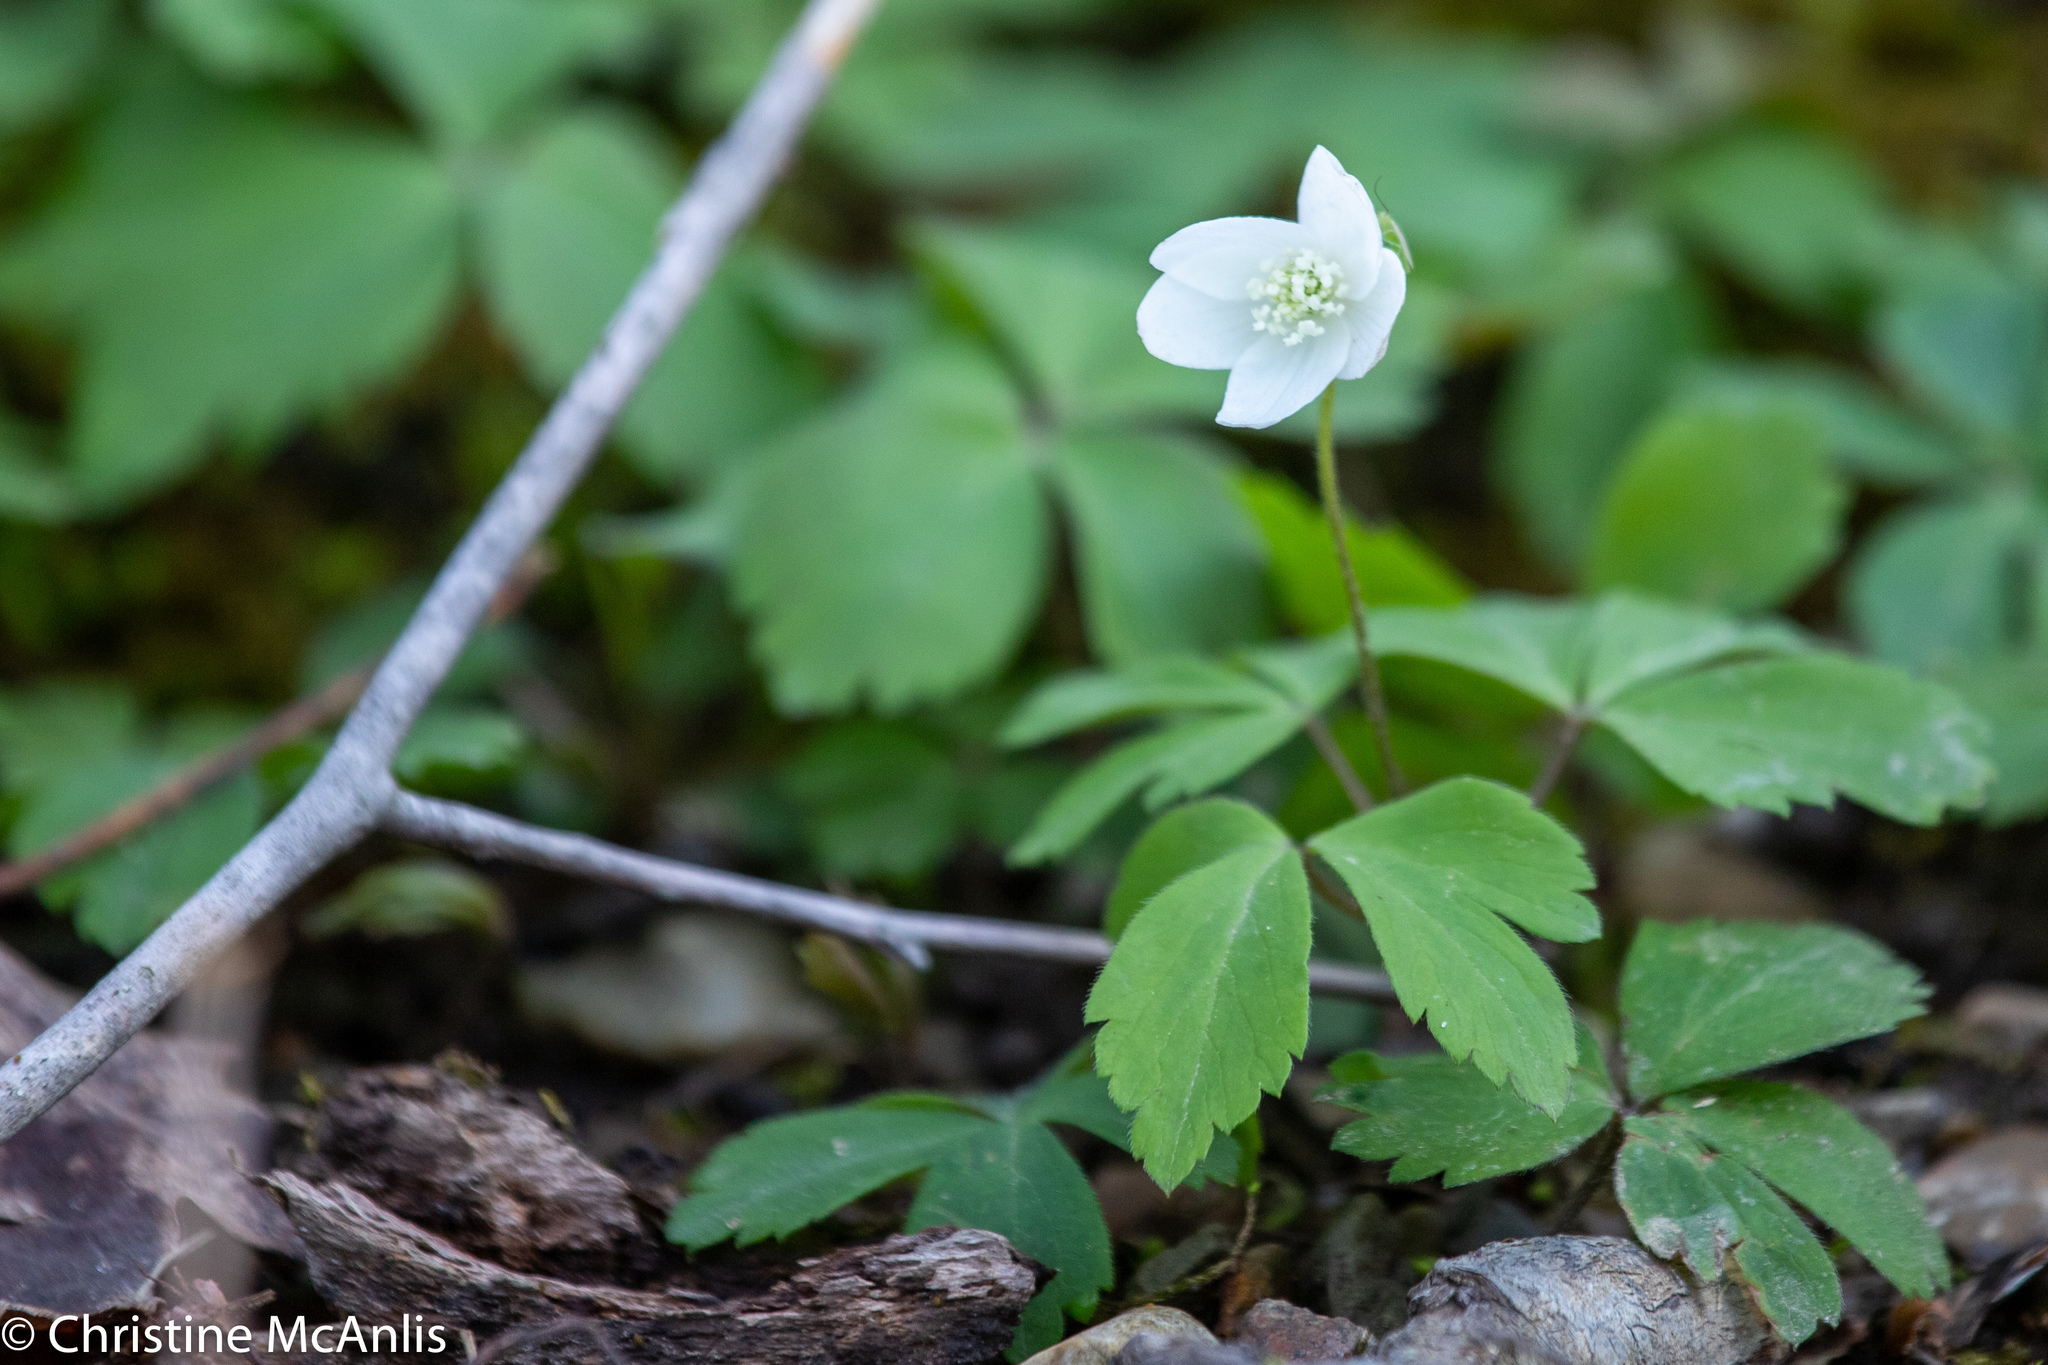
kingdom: Plantae
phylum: Tracheophyta
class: Magnoliopsida
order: Ranunculales
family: Ranunculaceae
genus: Anemone
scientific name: Anemone quinquefolia
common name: Wood anemone
